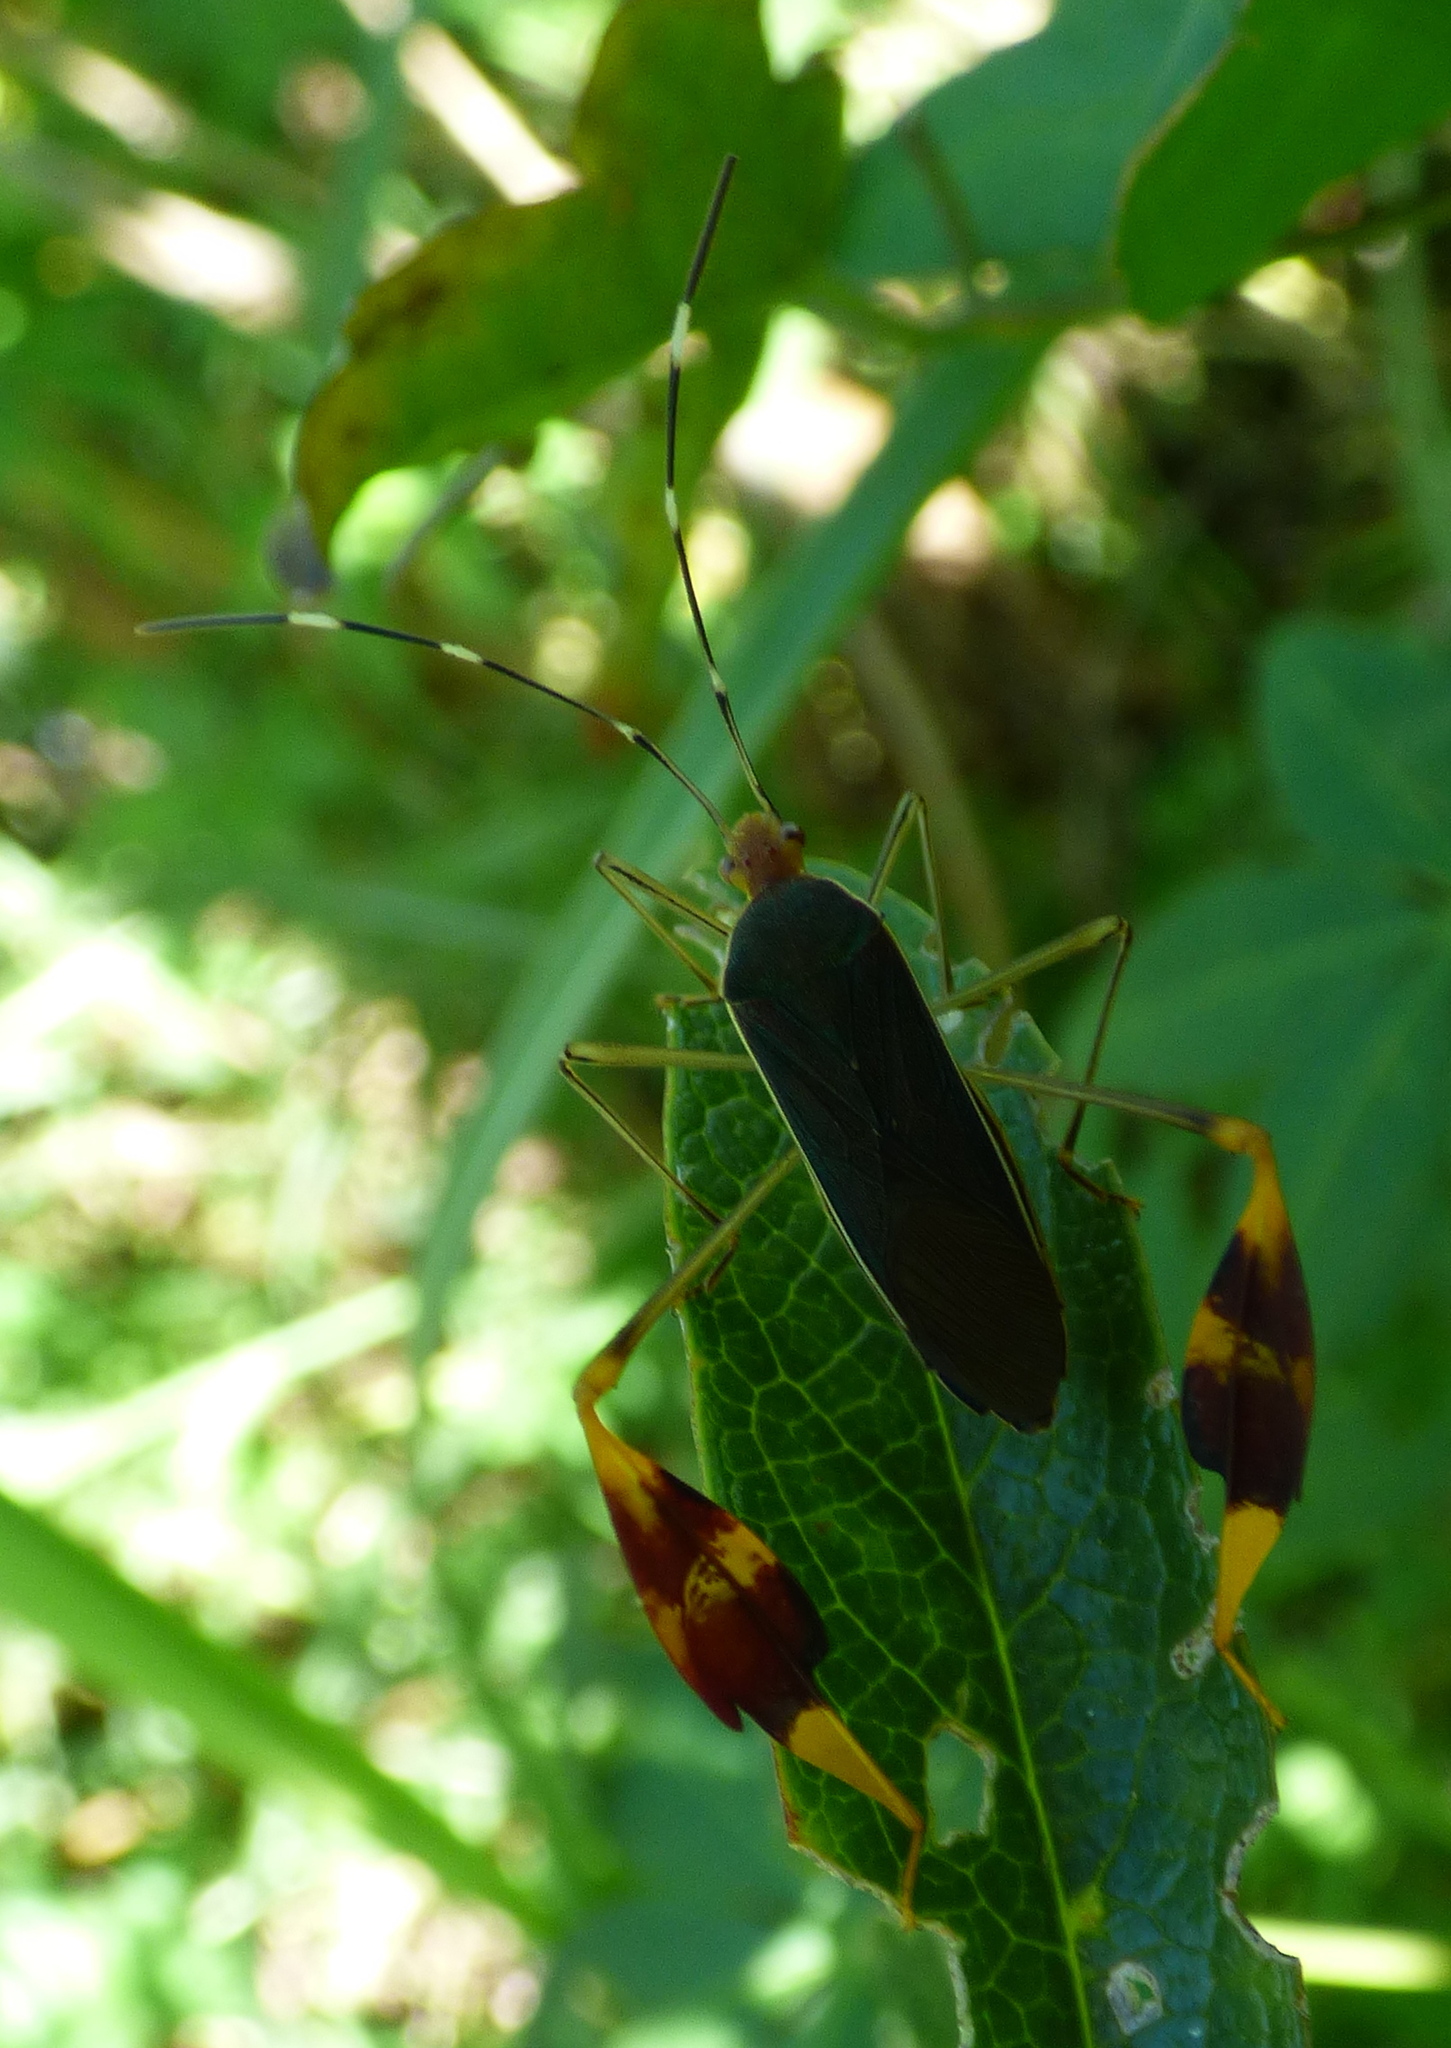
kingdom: Animalia
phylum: Arthropoda
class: Insecta
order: Hemiptera
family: Coreidae
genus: Anisoscelis
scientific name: Anisoscelis marginellus
